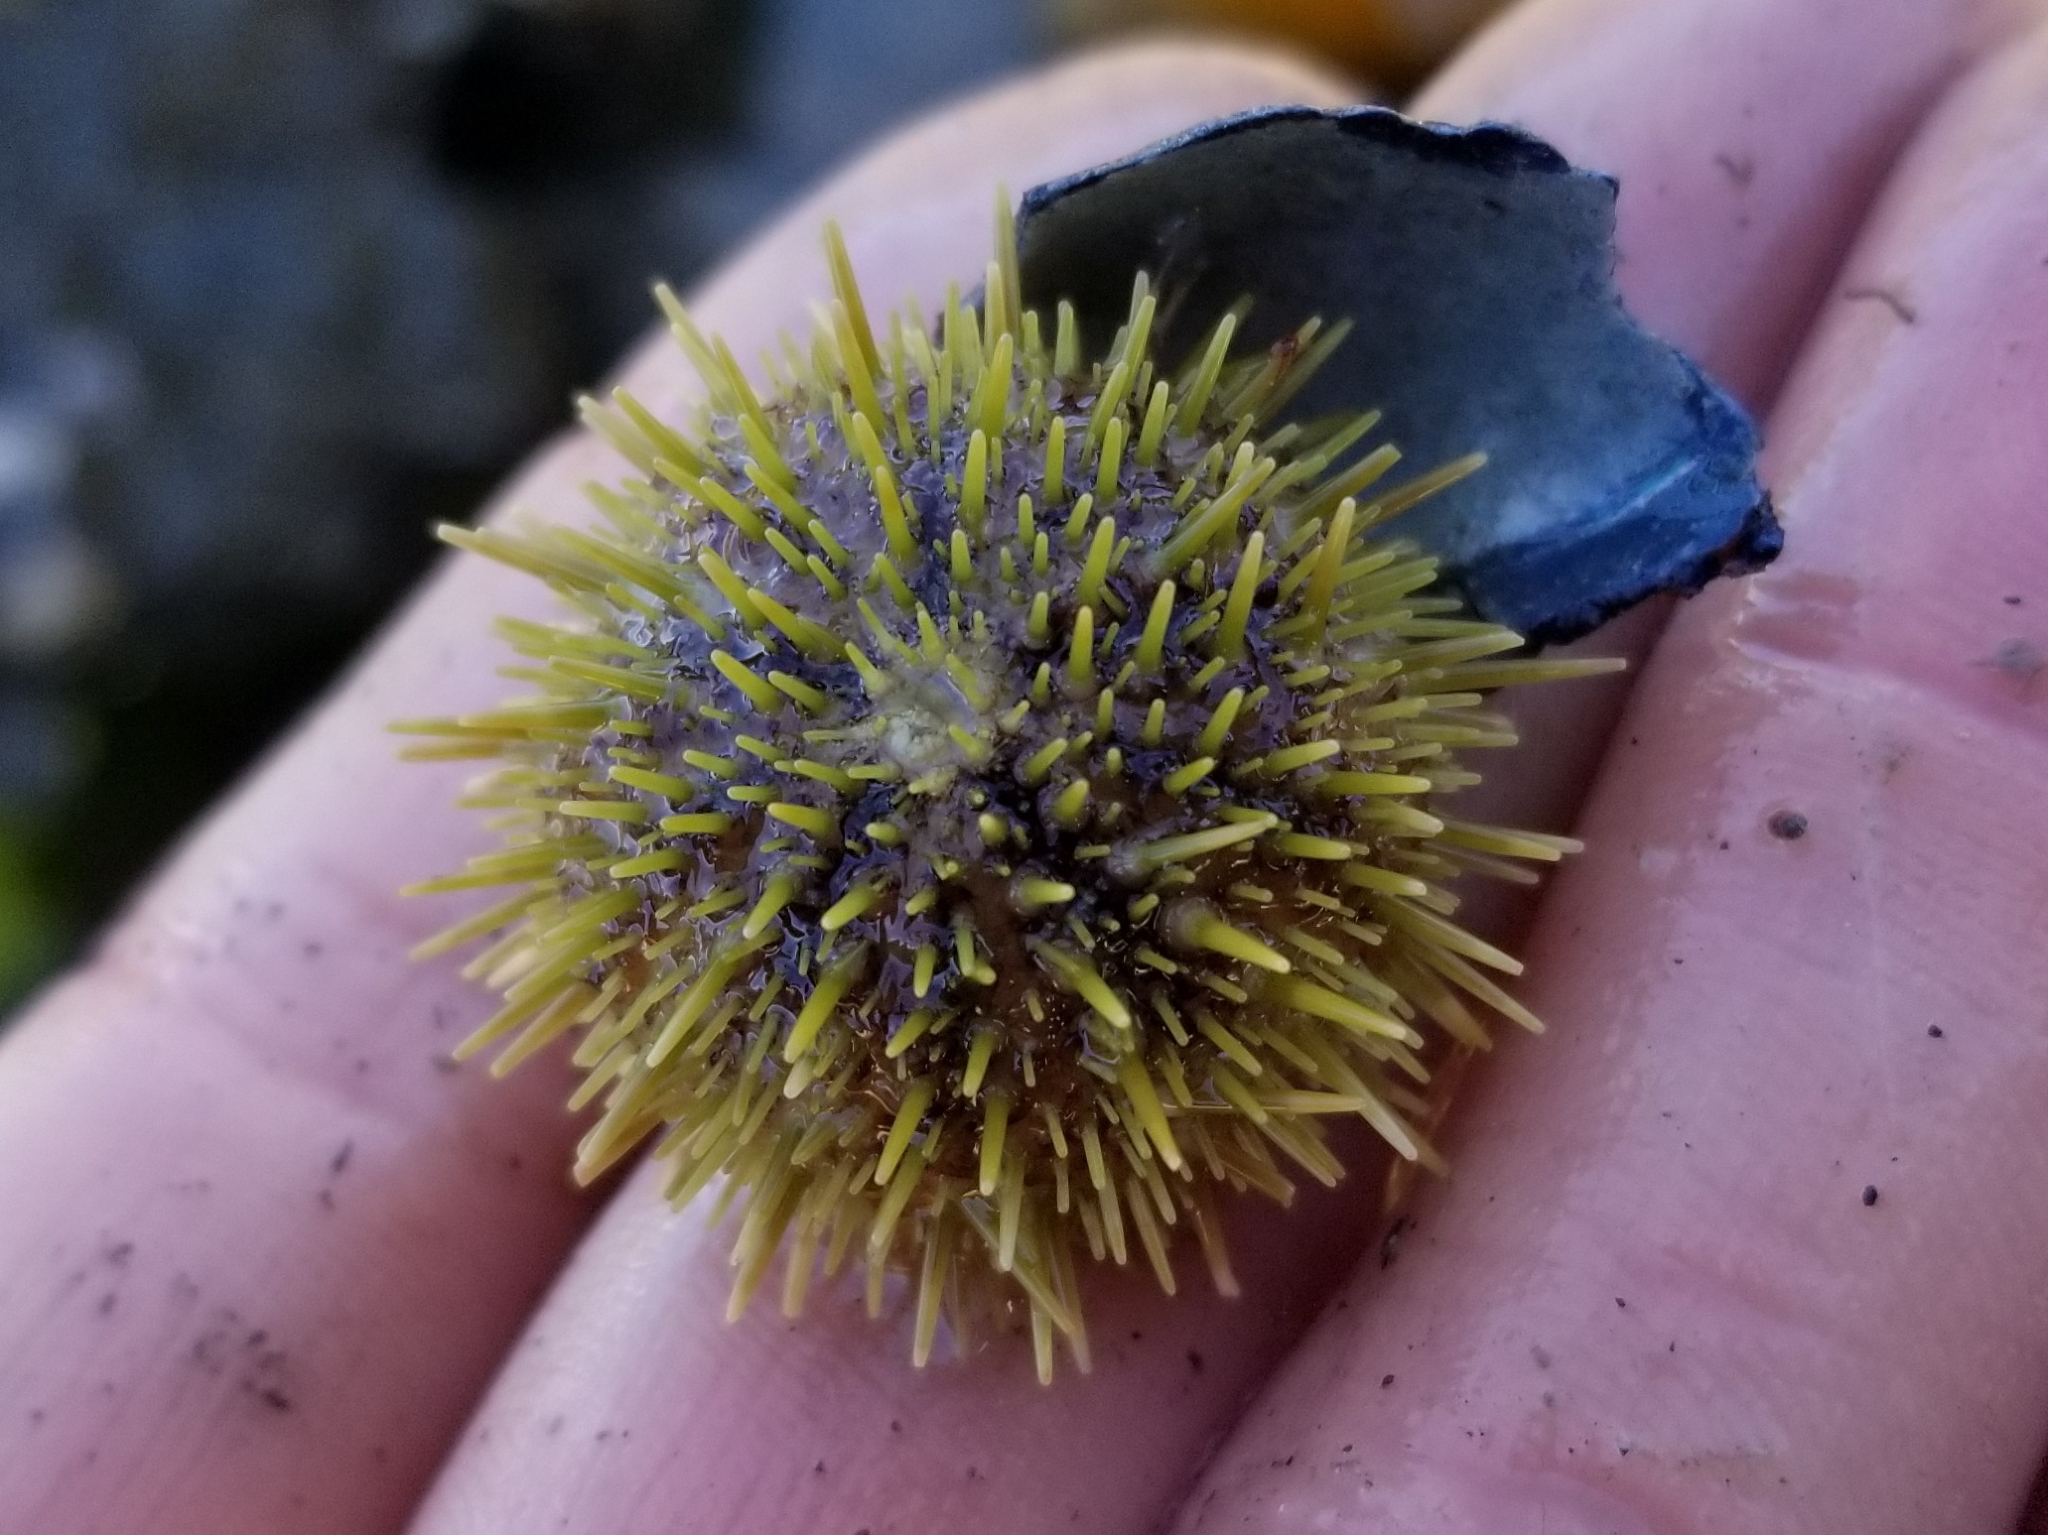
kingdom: Animalia
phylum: Echinodermata
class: Echinoidea
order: Camarodonta
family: Strongylocentrotidae
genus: Strongylocentrotus
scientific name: Strongylocentrotus droebachiensis
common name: Northern sea urchin
